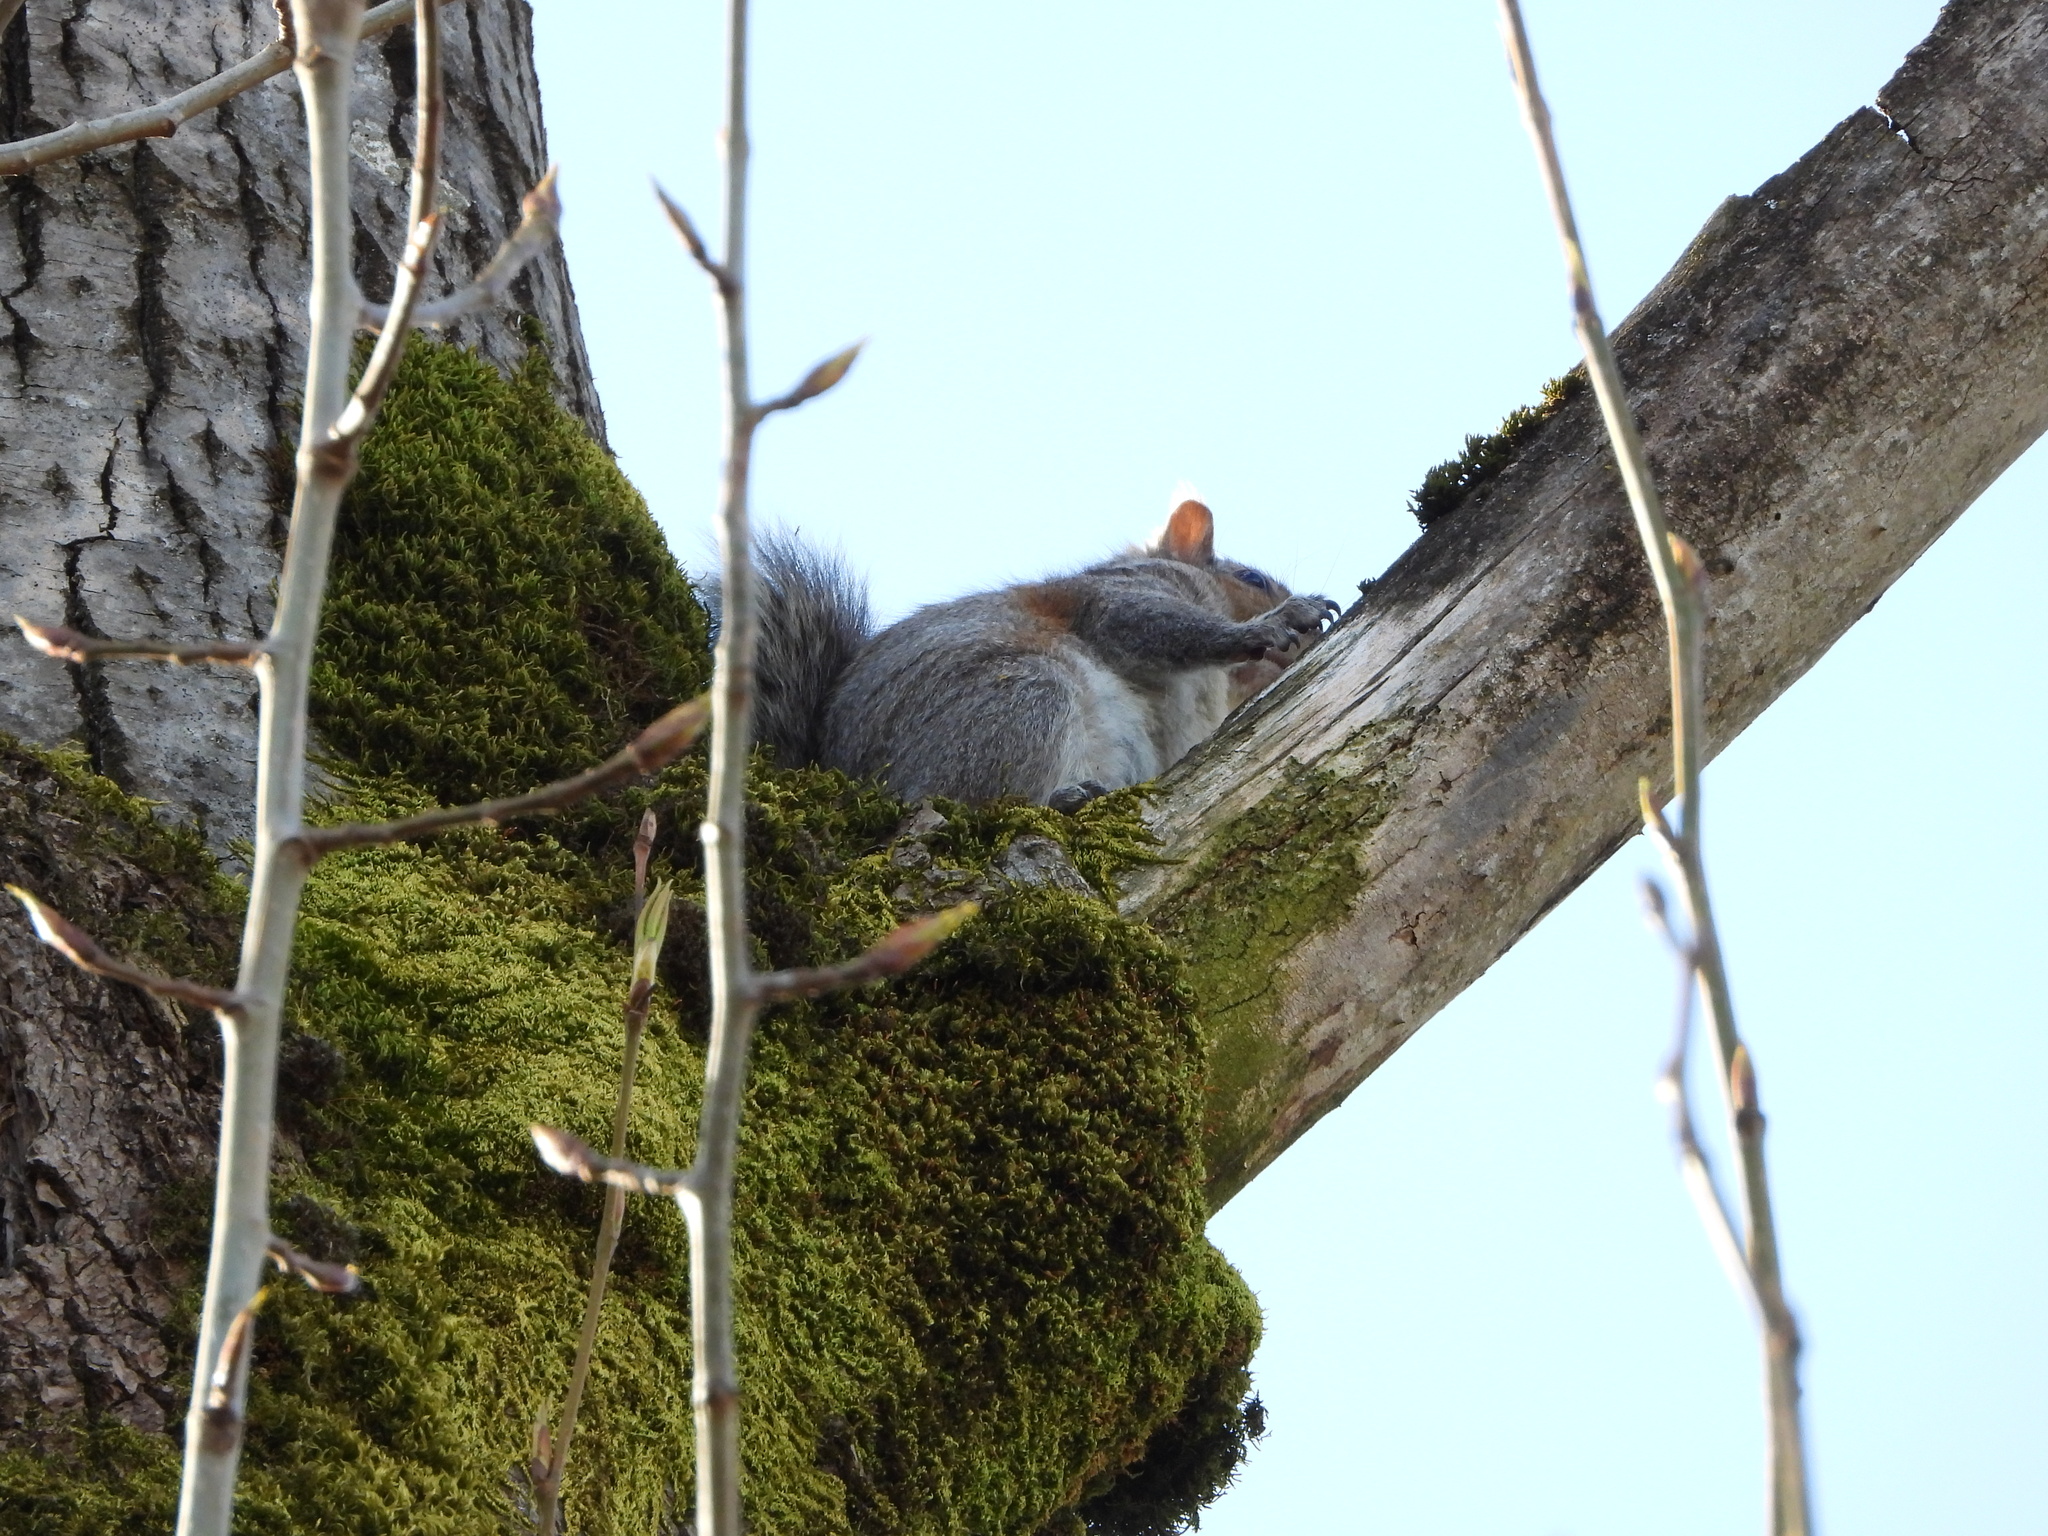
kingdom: Animalia
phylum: Chordata
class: Mammalia
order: Rodentia
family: Sciuridae
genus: Sciurus
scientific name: Sciurus carolinensis
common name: Eastern gray squirrel
